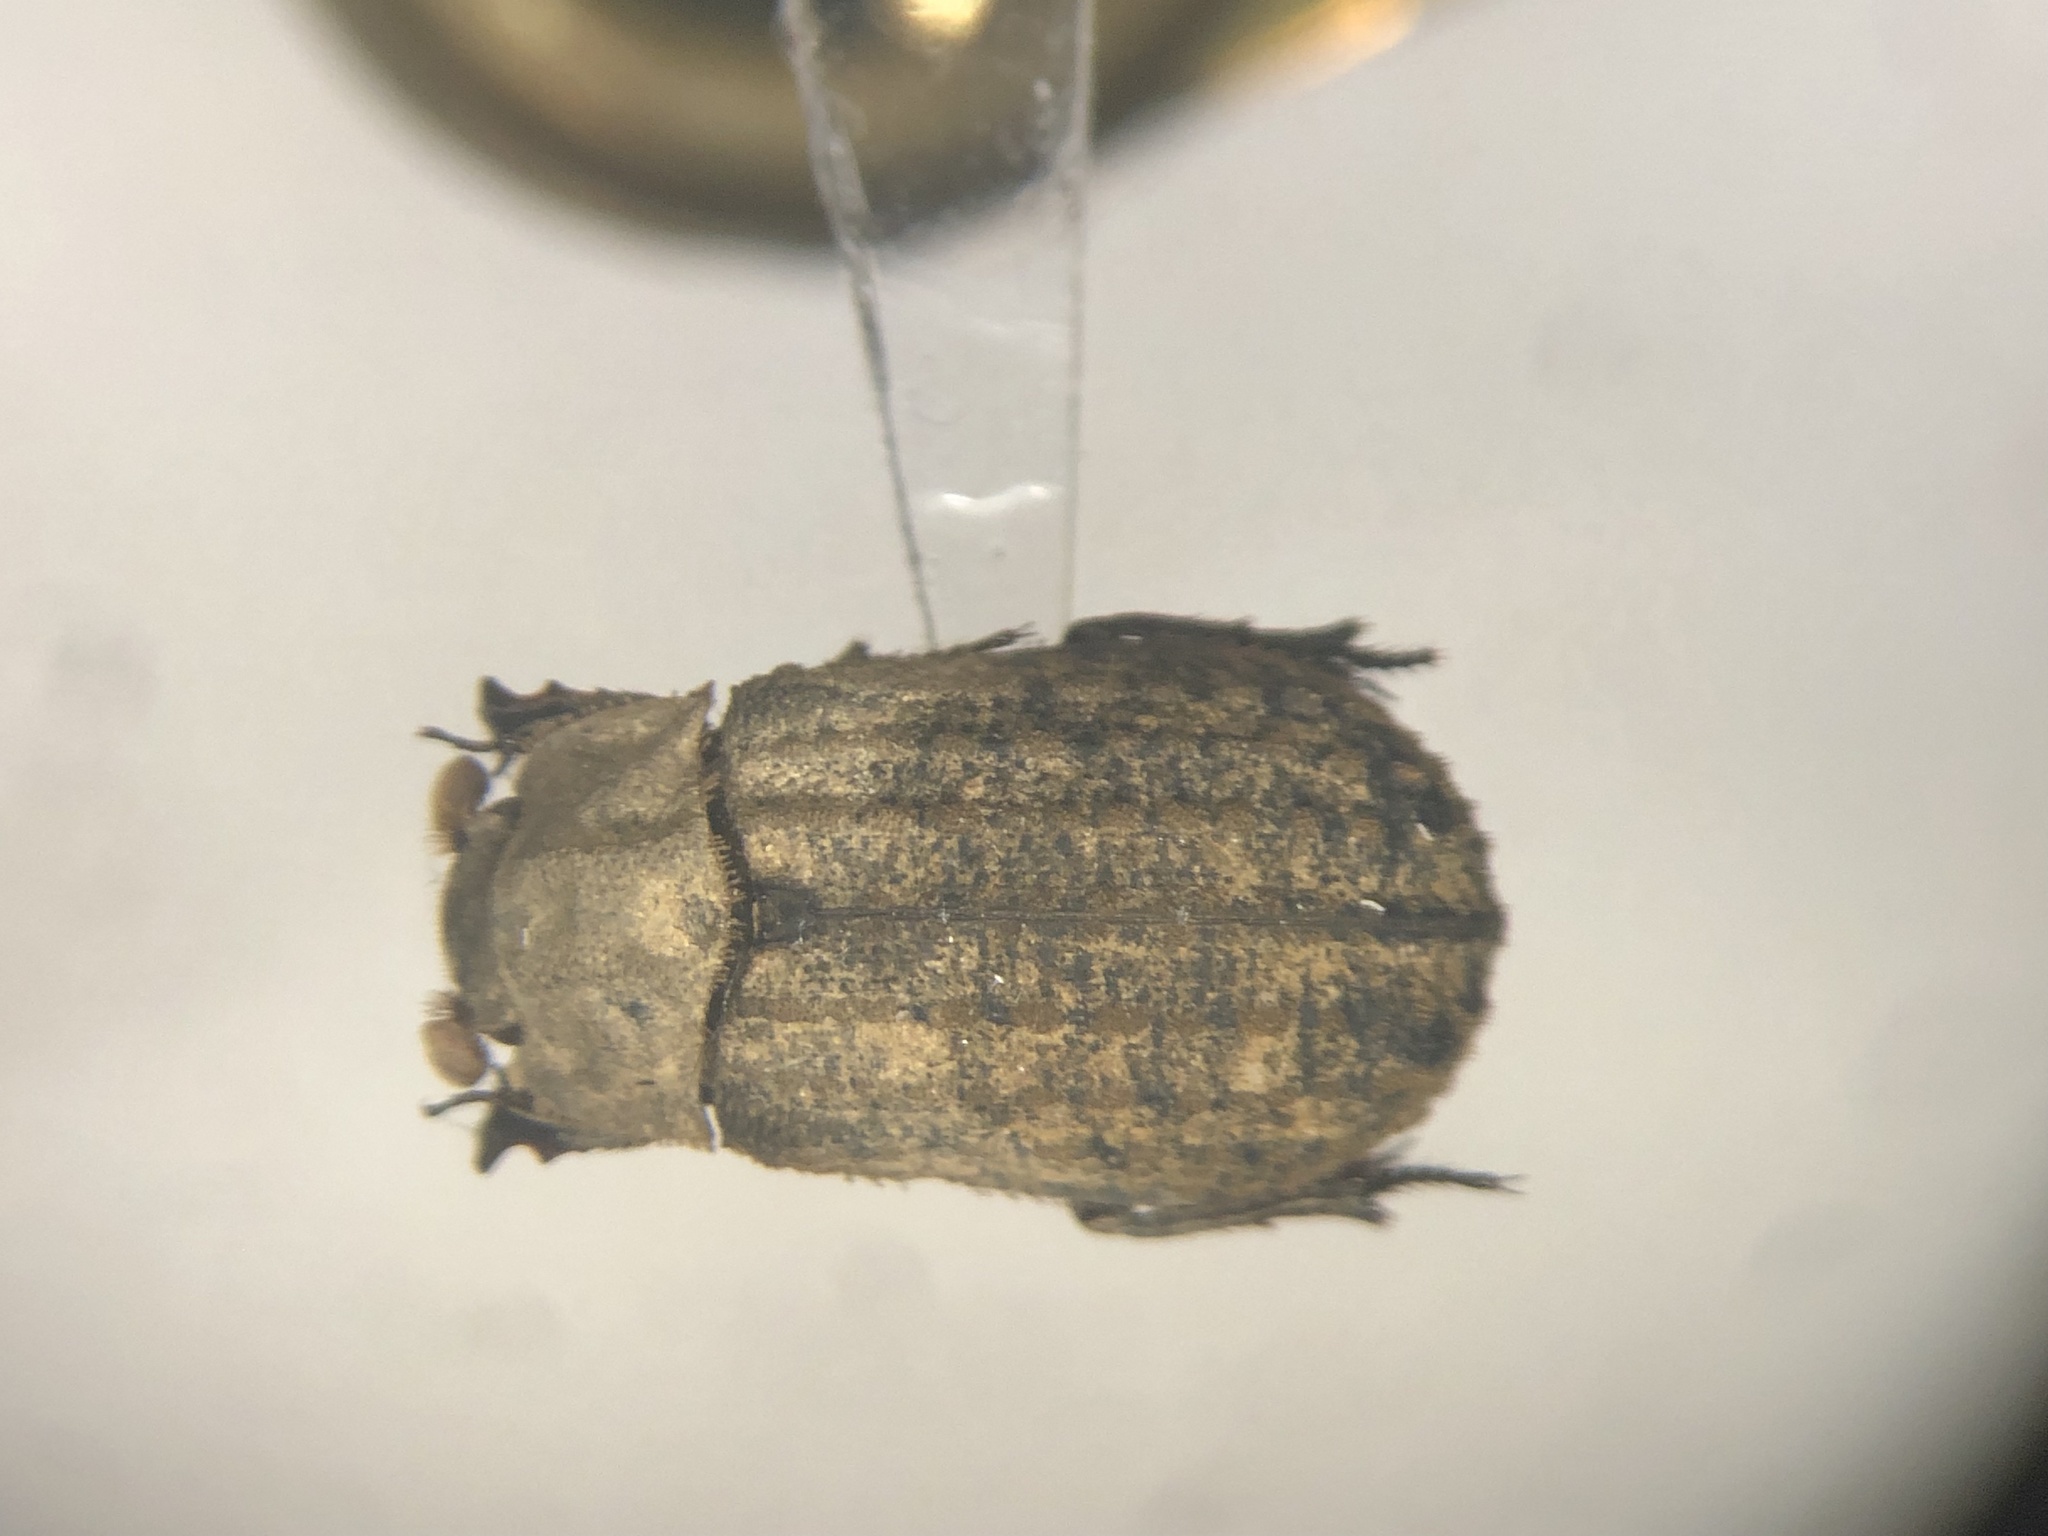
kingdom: Animalia
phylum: Arthropoda
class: Insecta
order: Coleoptera
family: Trogidae
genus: Trox
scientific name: Trox robinsoni
